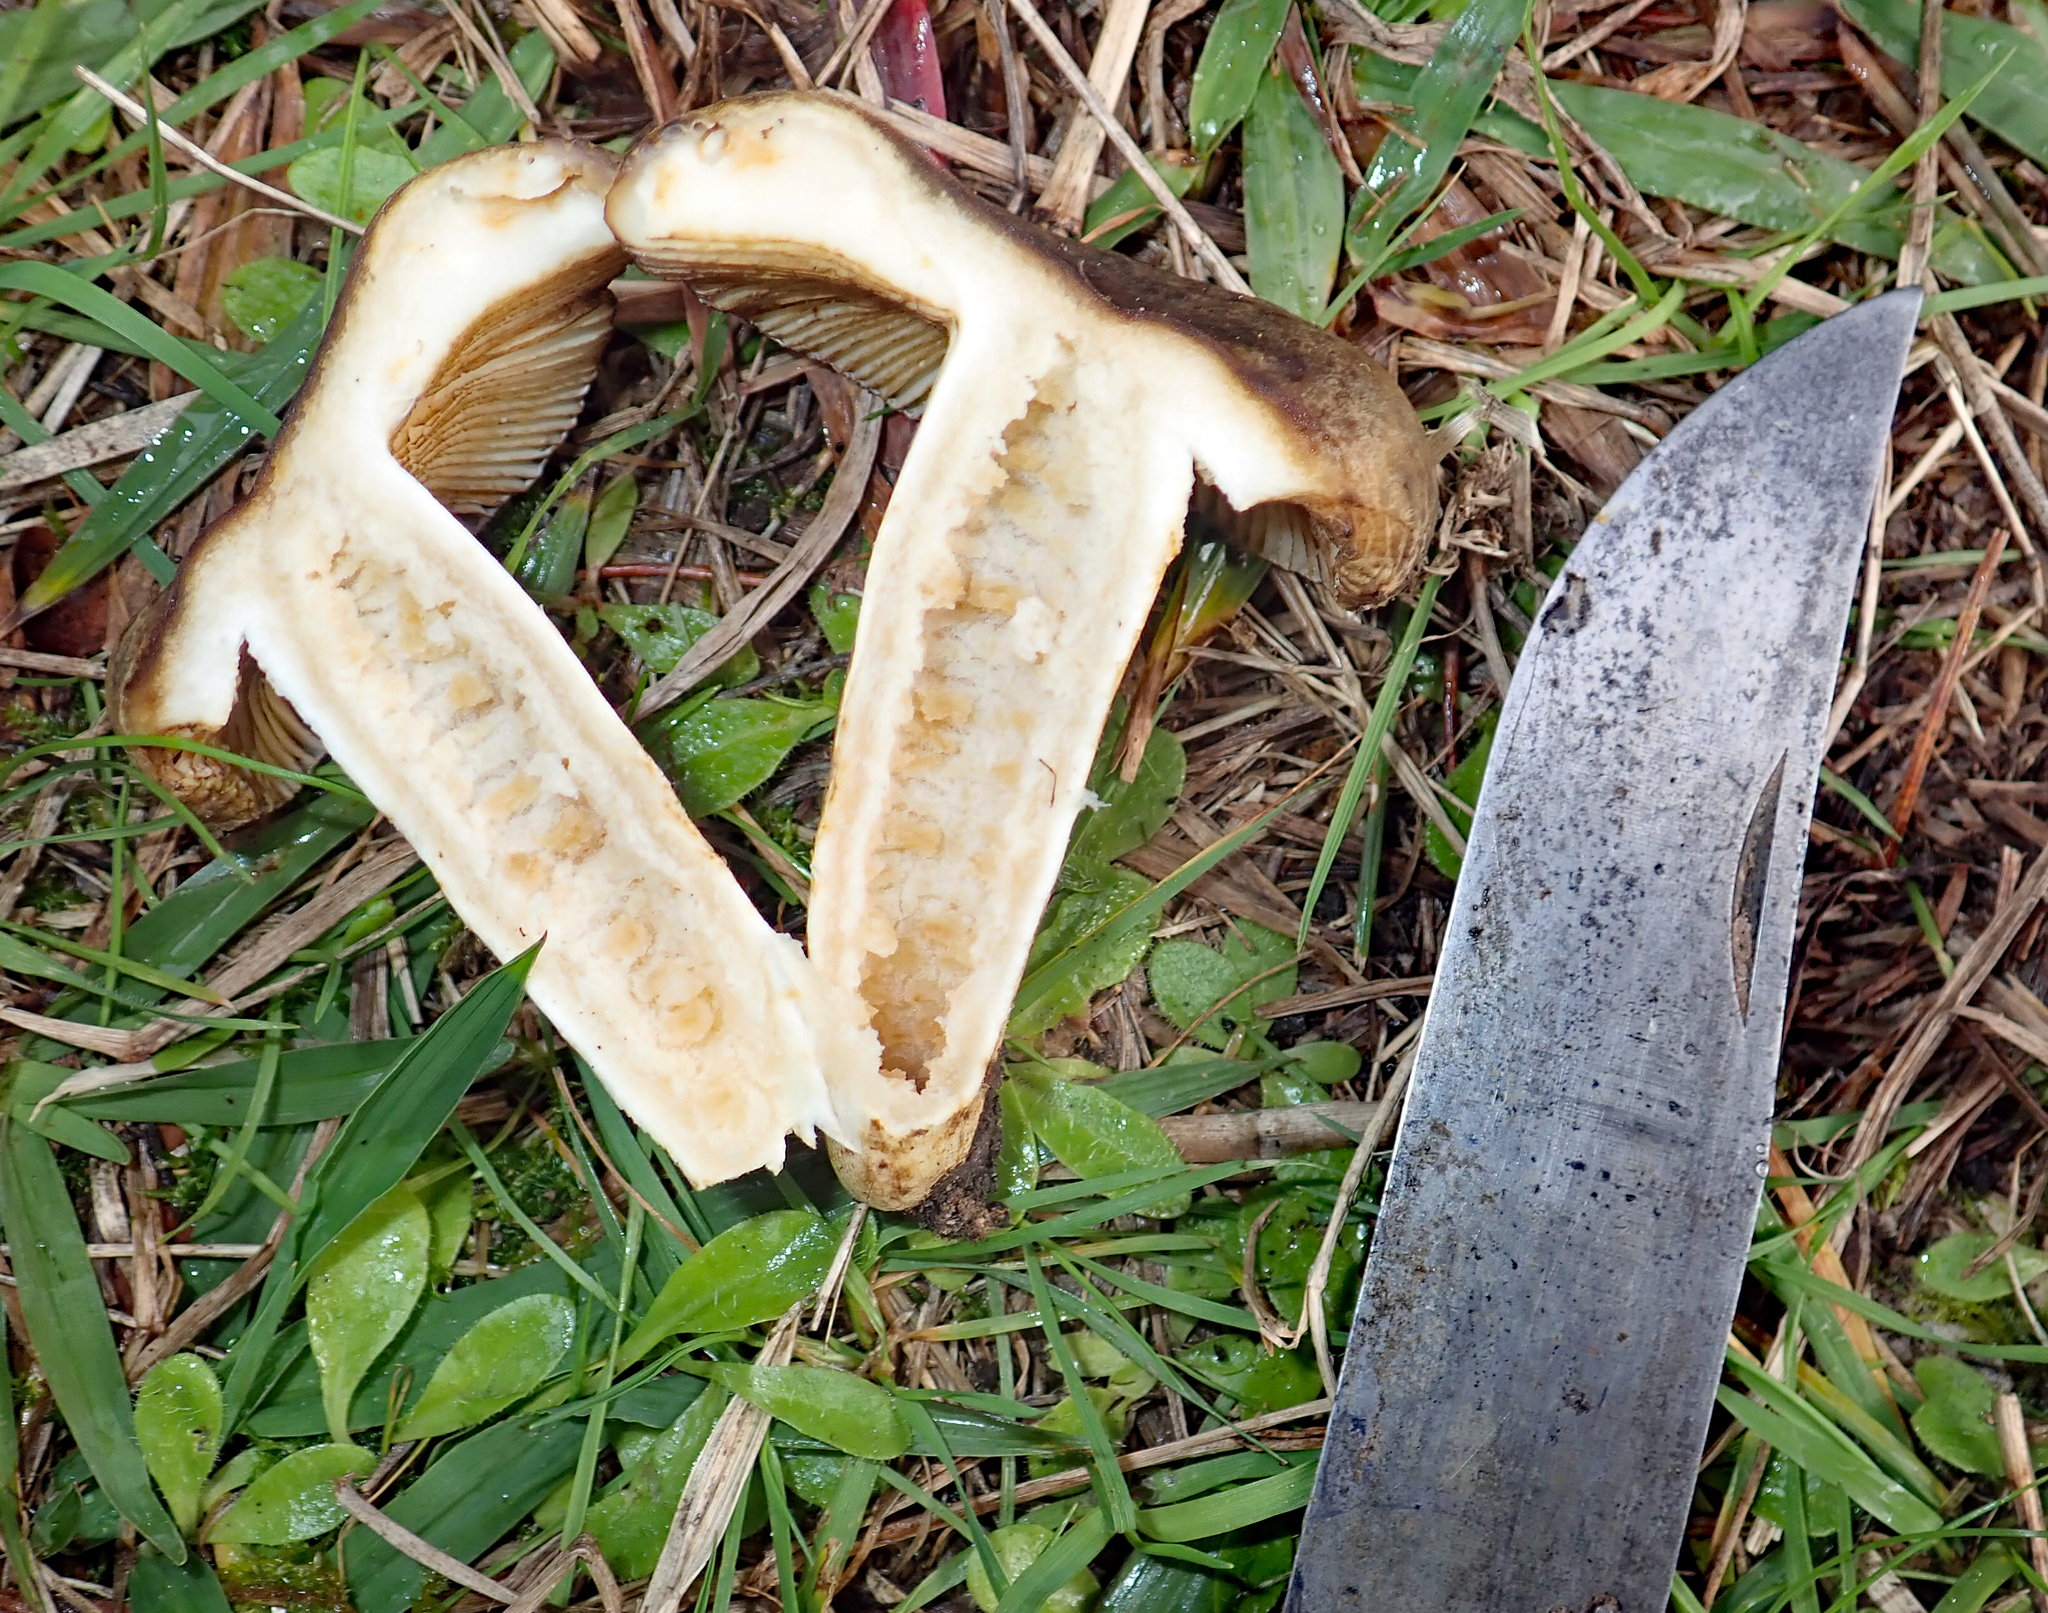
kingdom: Fungi
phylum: Basidiomycota
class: Agaricomycetes
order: Russulales
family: Russulaceae
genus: Russula
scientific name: Russula acrolamellata
